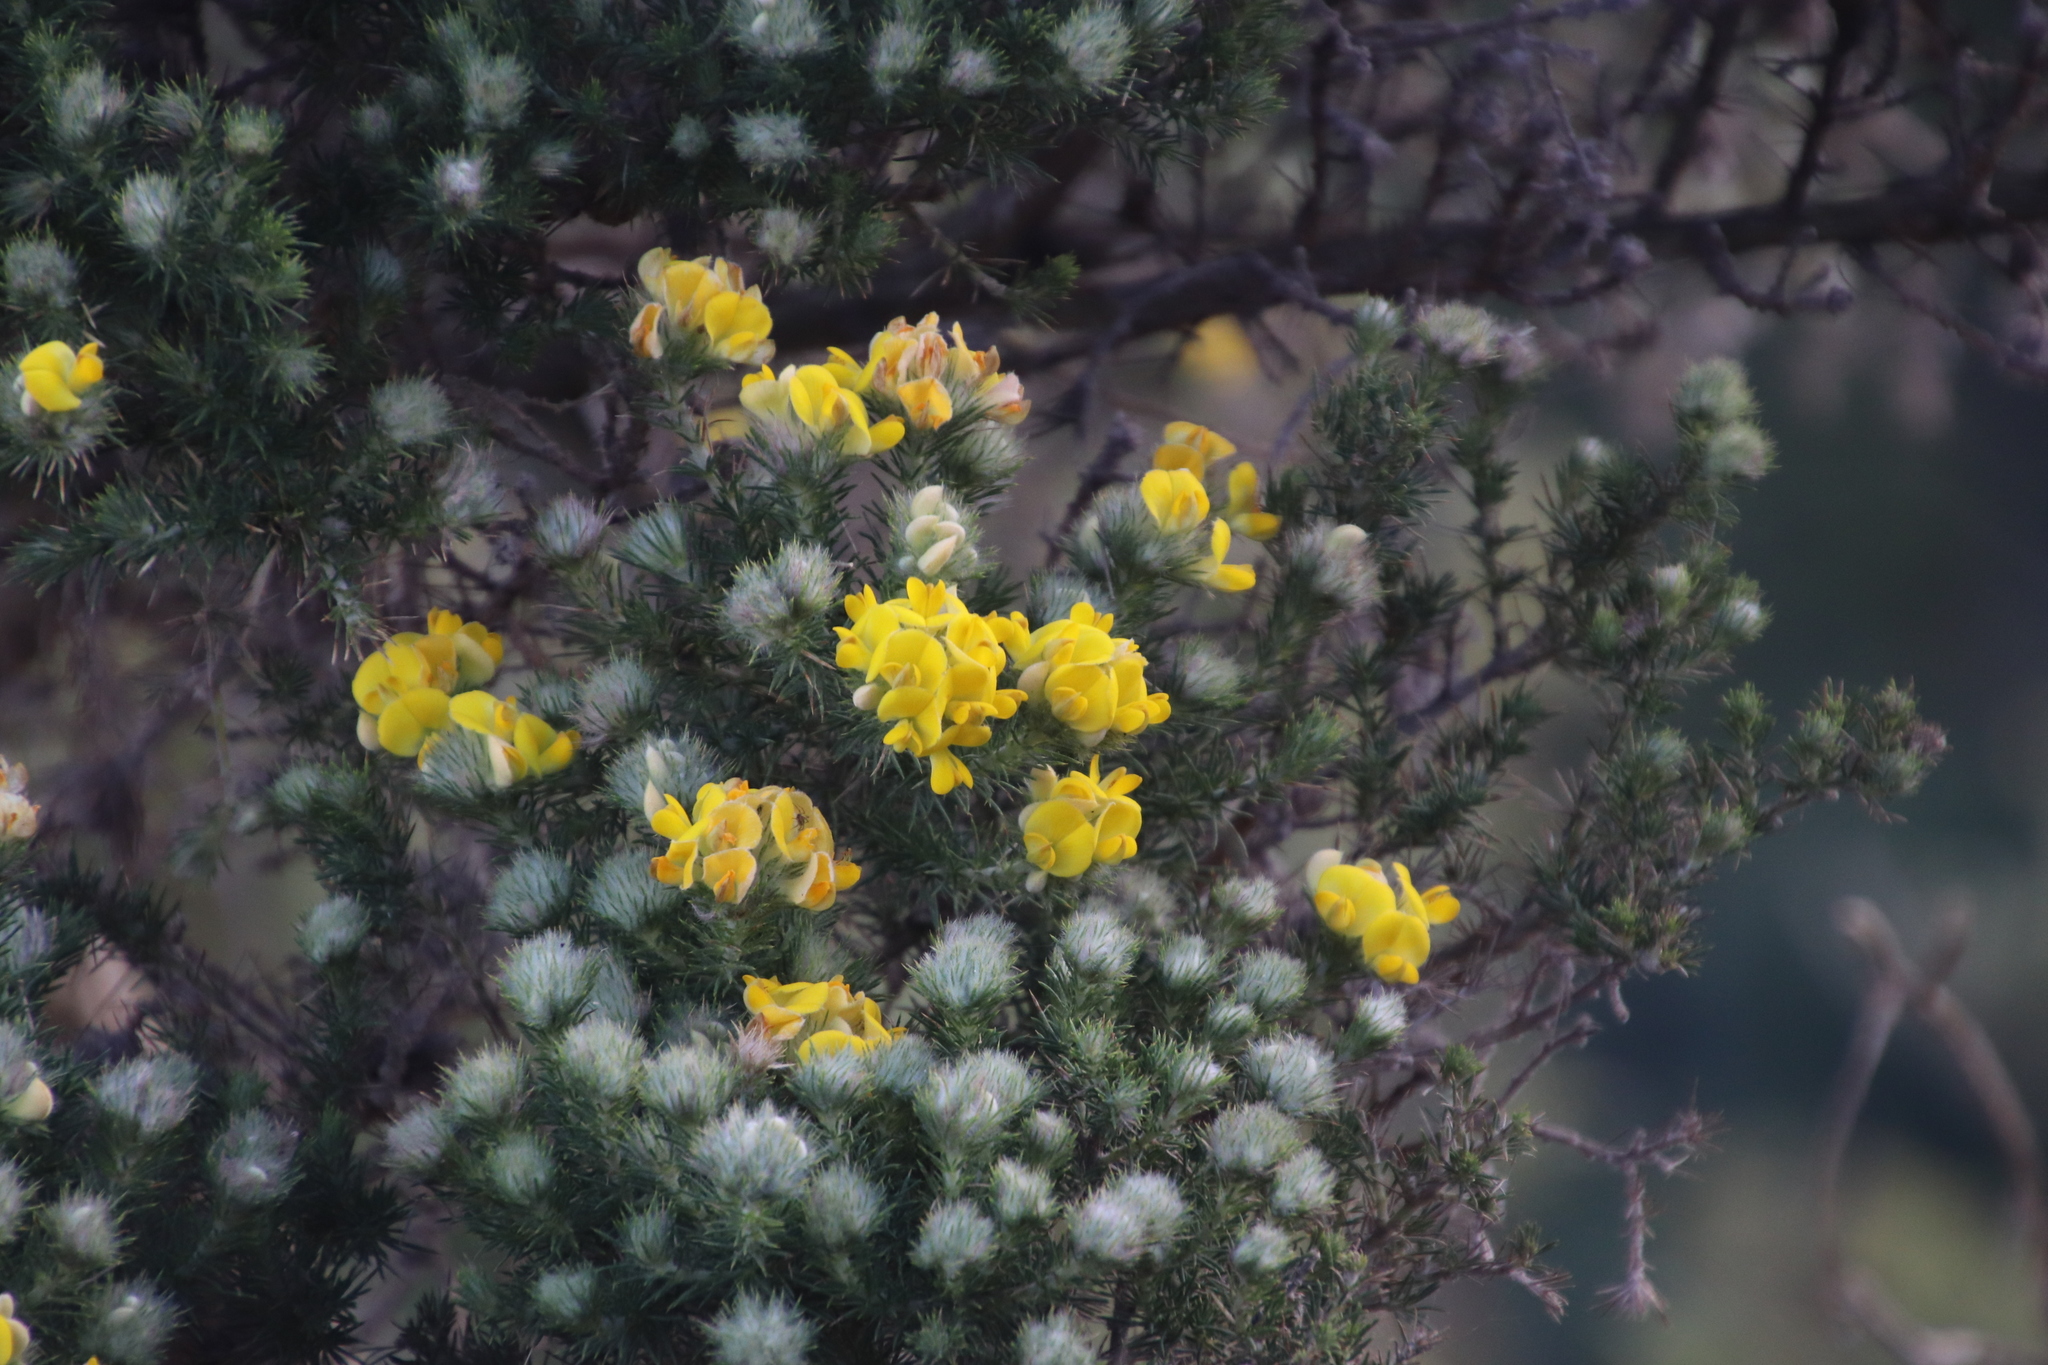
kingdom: Plantae
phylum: Tracheophyta
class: Magnoliopsida
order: Fabales
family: Fabaceae
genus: Aspalathus
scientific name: Aspalathus chenopoda
